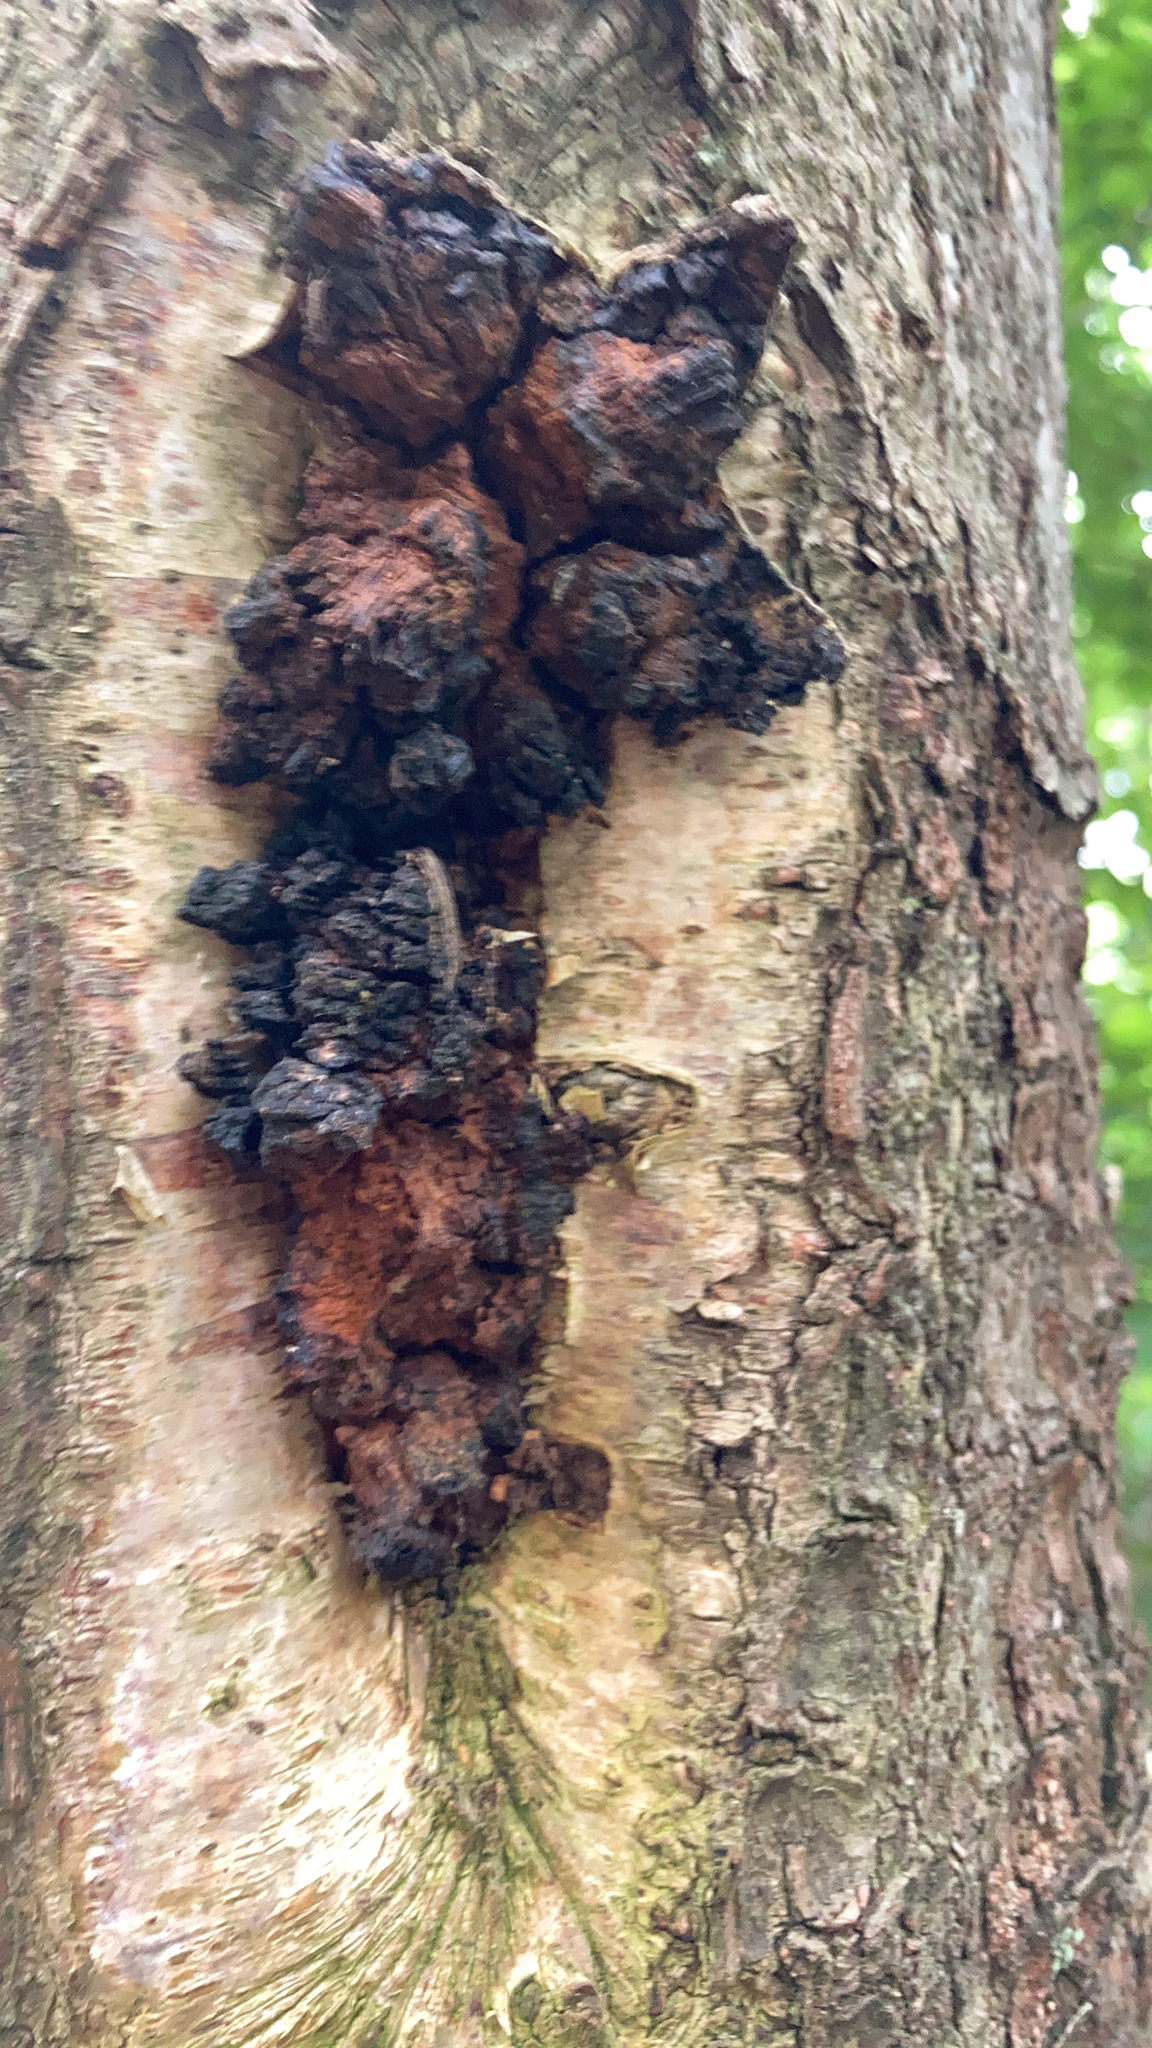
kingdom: Fungi
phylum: Basidiomycota
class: Agaricomycetes
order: Hymenochaetales
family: Hymenochaetaceae
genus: Inonotus
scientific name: Inonotus obliquus
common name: Chaga
